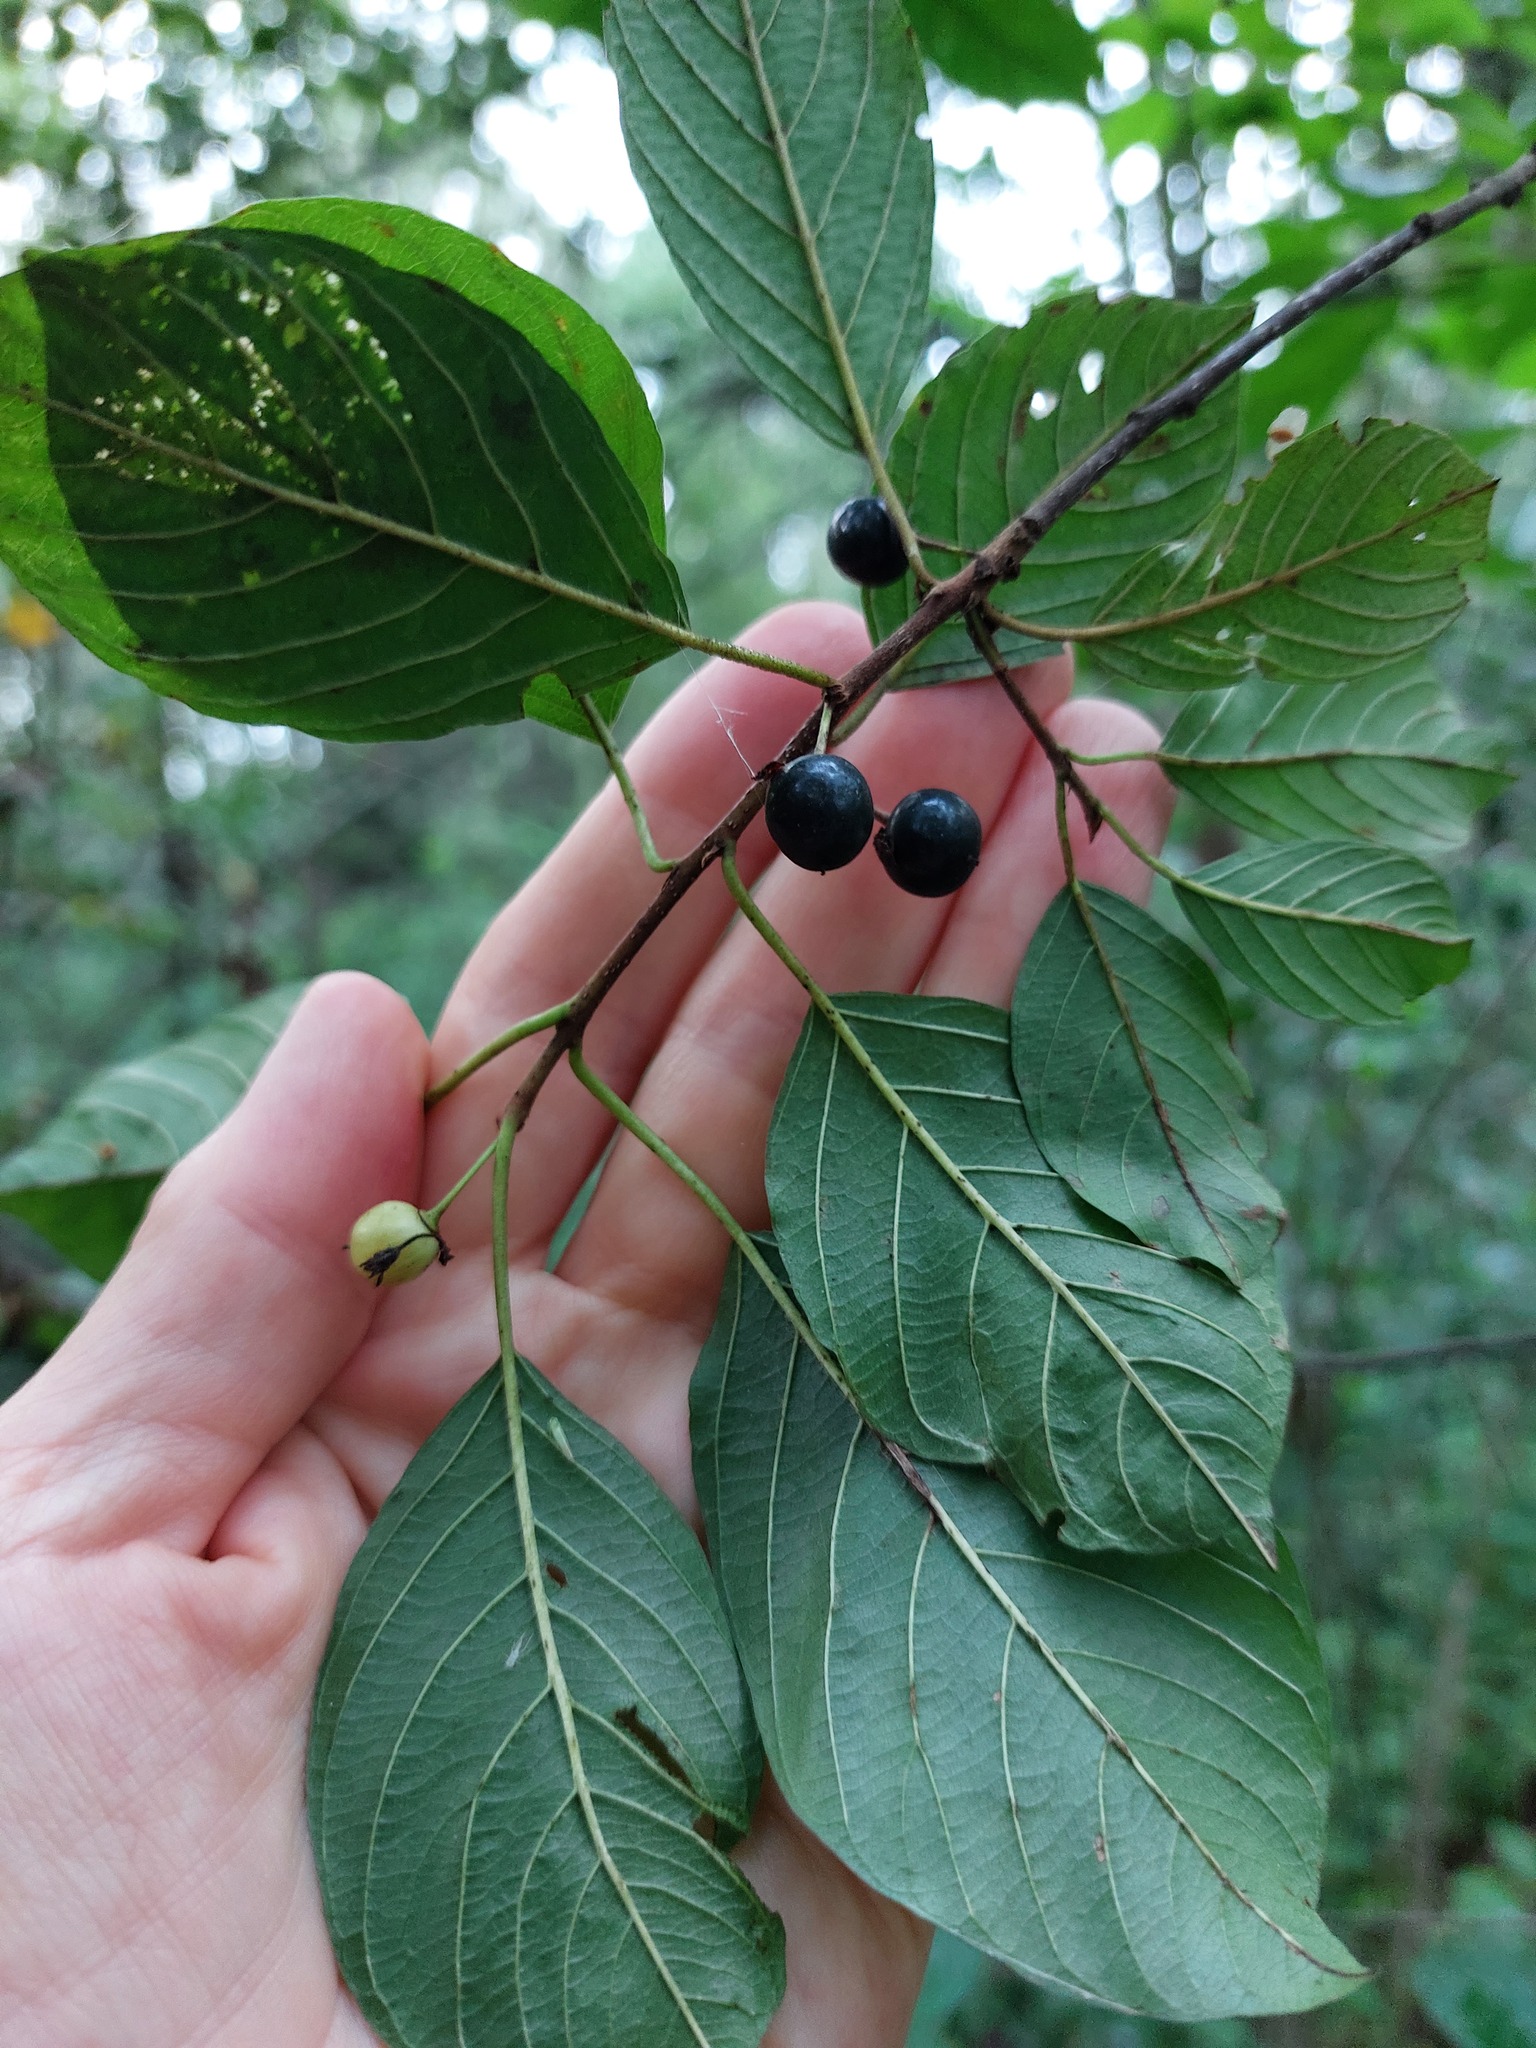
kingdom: Plantae
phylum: Tracheophyta
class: Magnoliopsida
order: Rosales
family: Rhamnaceae
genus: Frangula
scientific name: Frangula alnus
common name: Alder buckthorn
